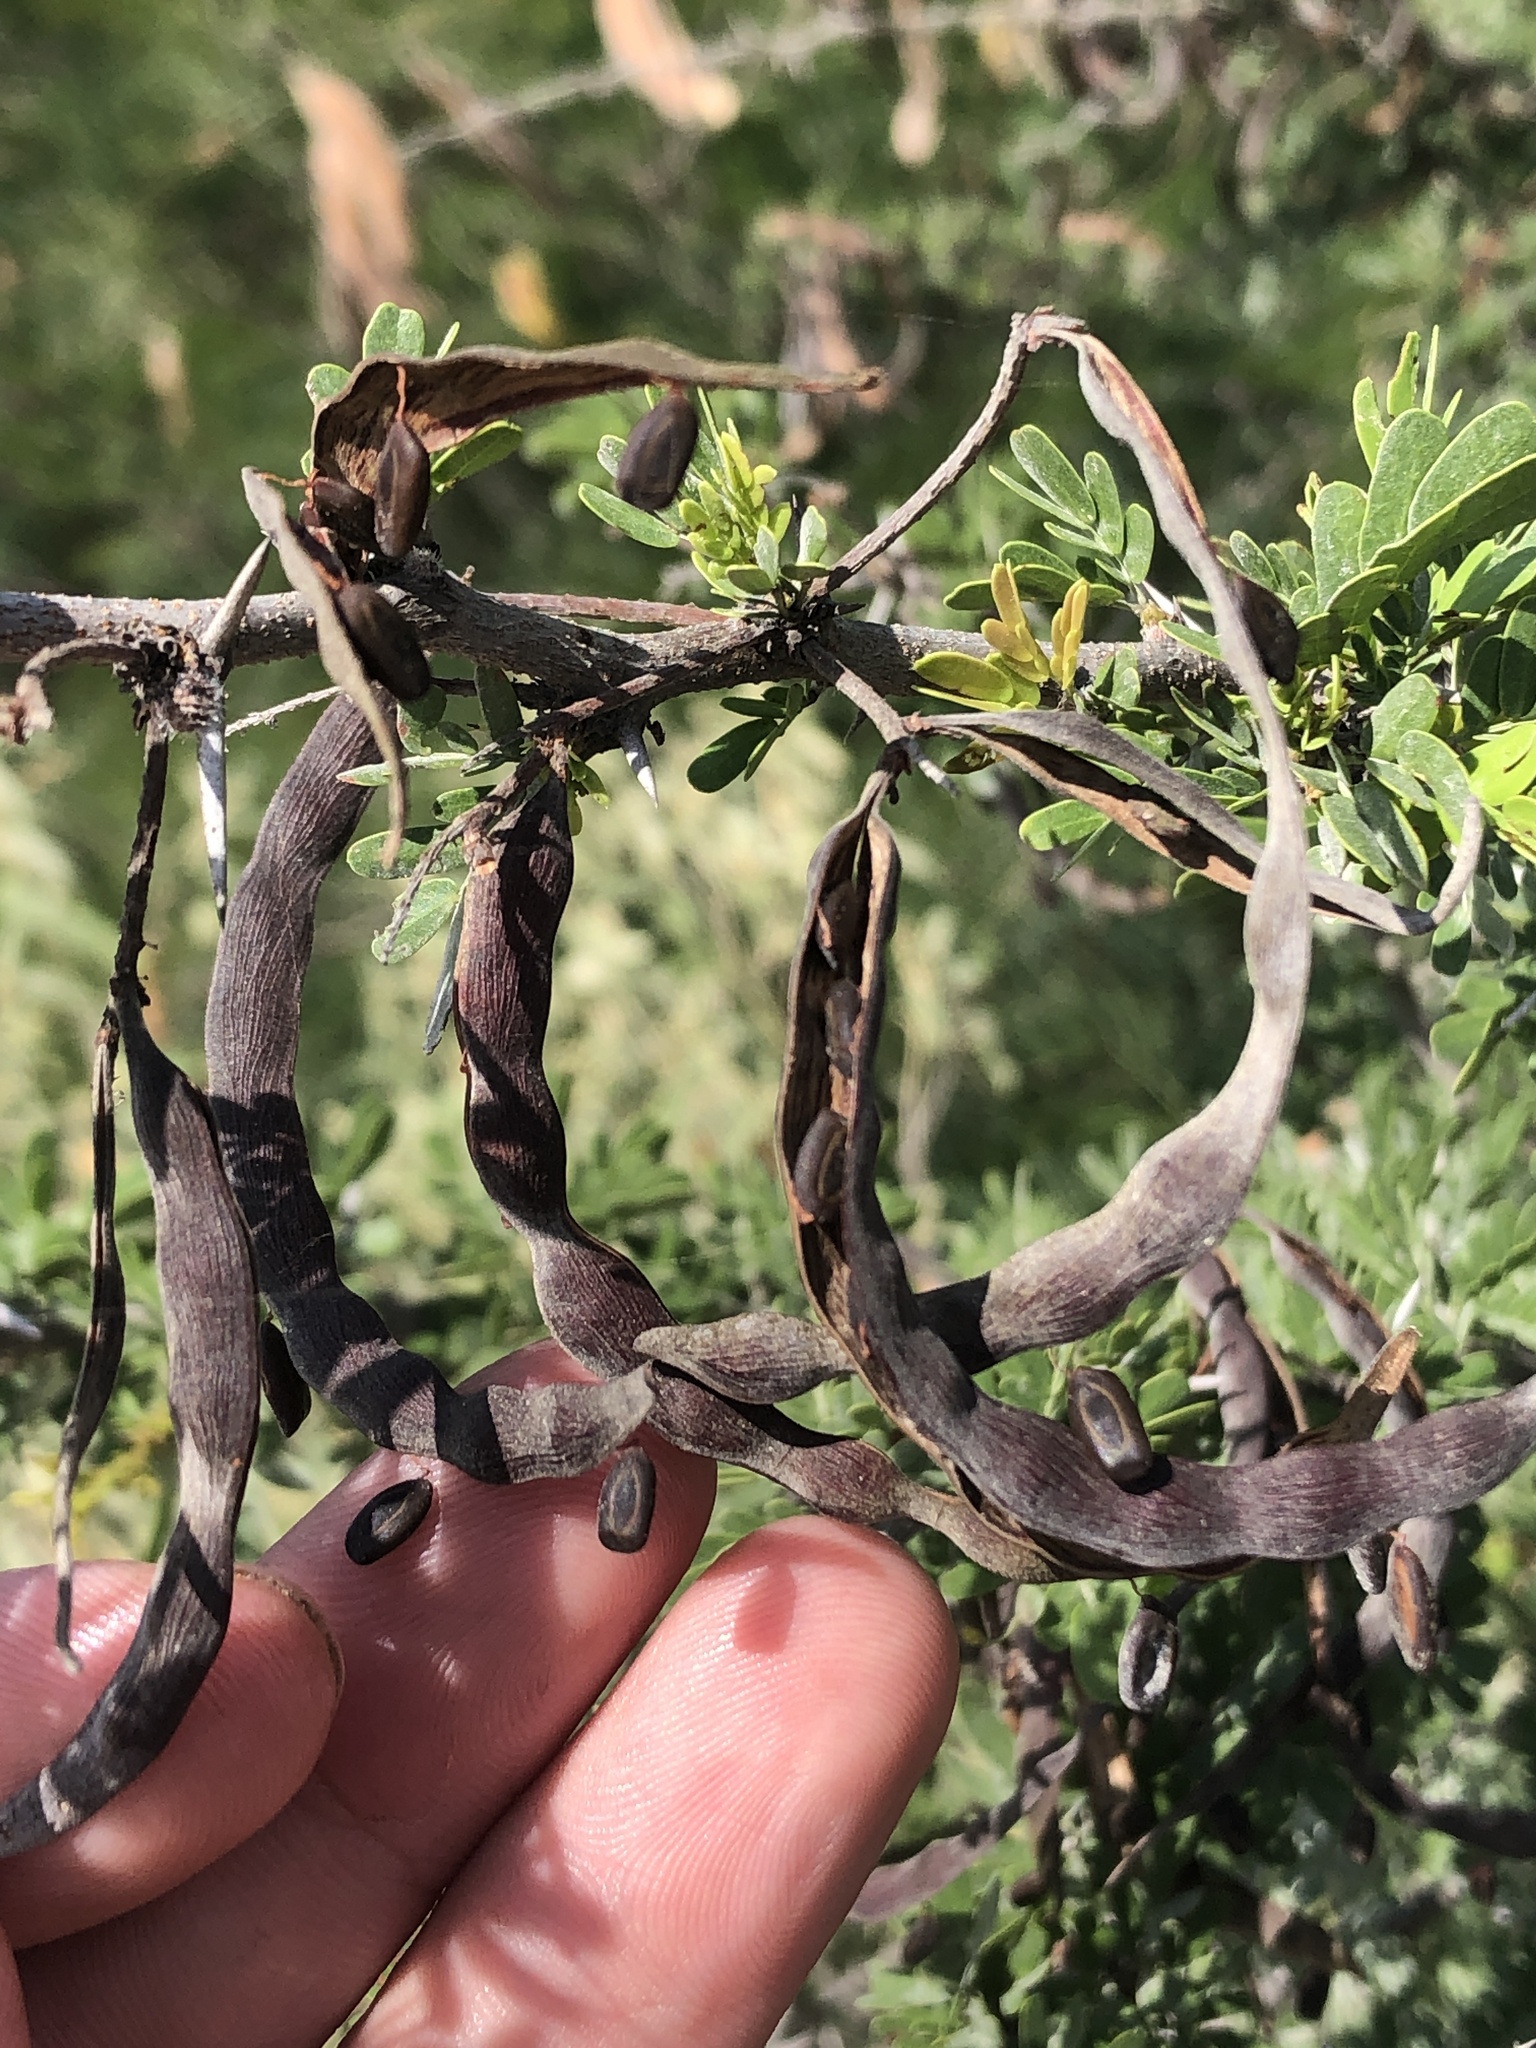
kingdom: Plantae
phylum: Tracheophyta
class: Magnoliopsida
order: Fabales
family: Fabaceae
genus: Vachellia
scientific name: Vachellia rigidula
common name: Blackbrush
